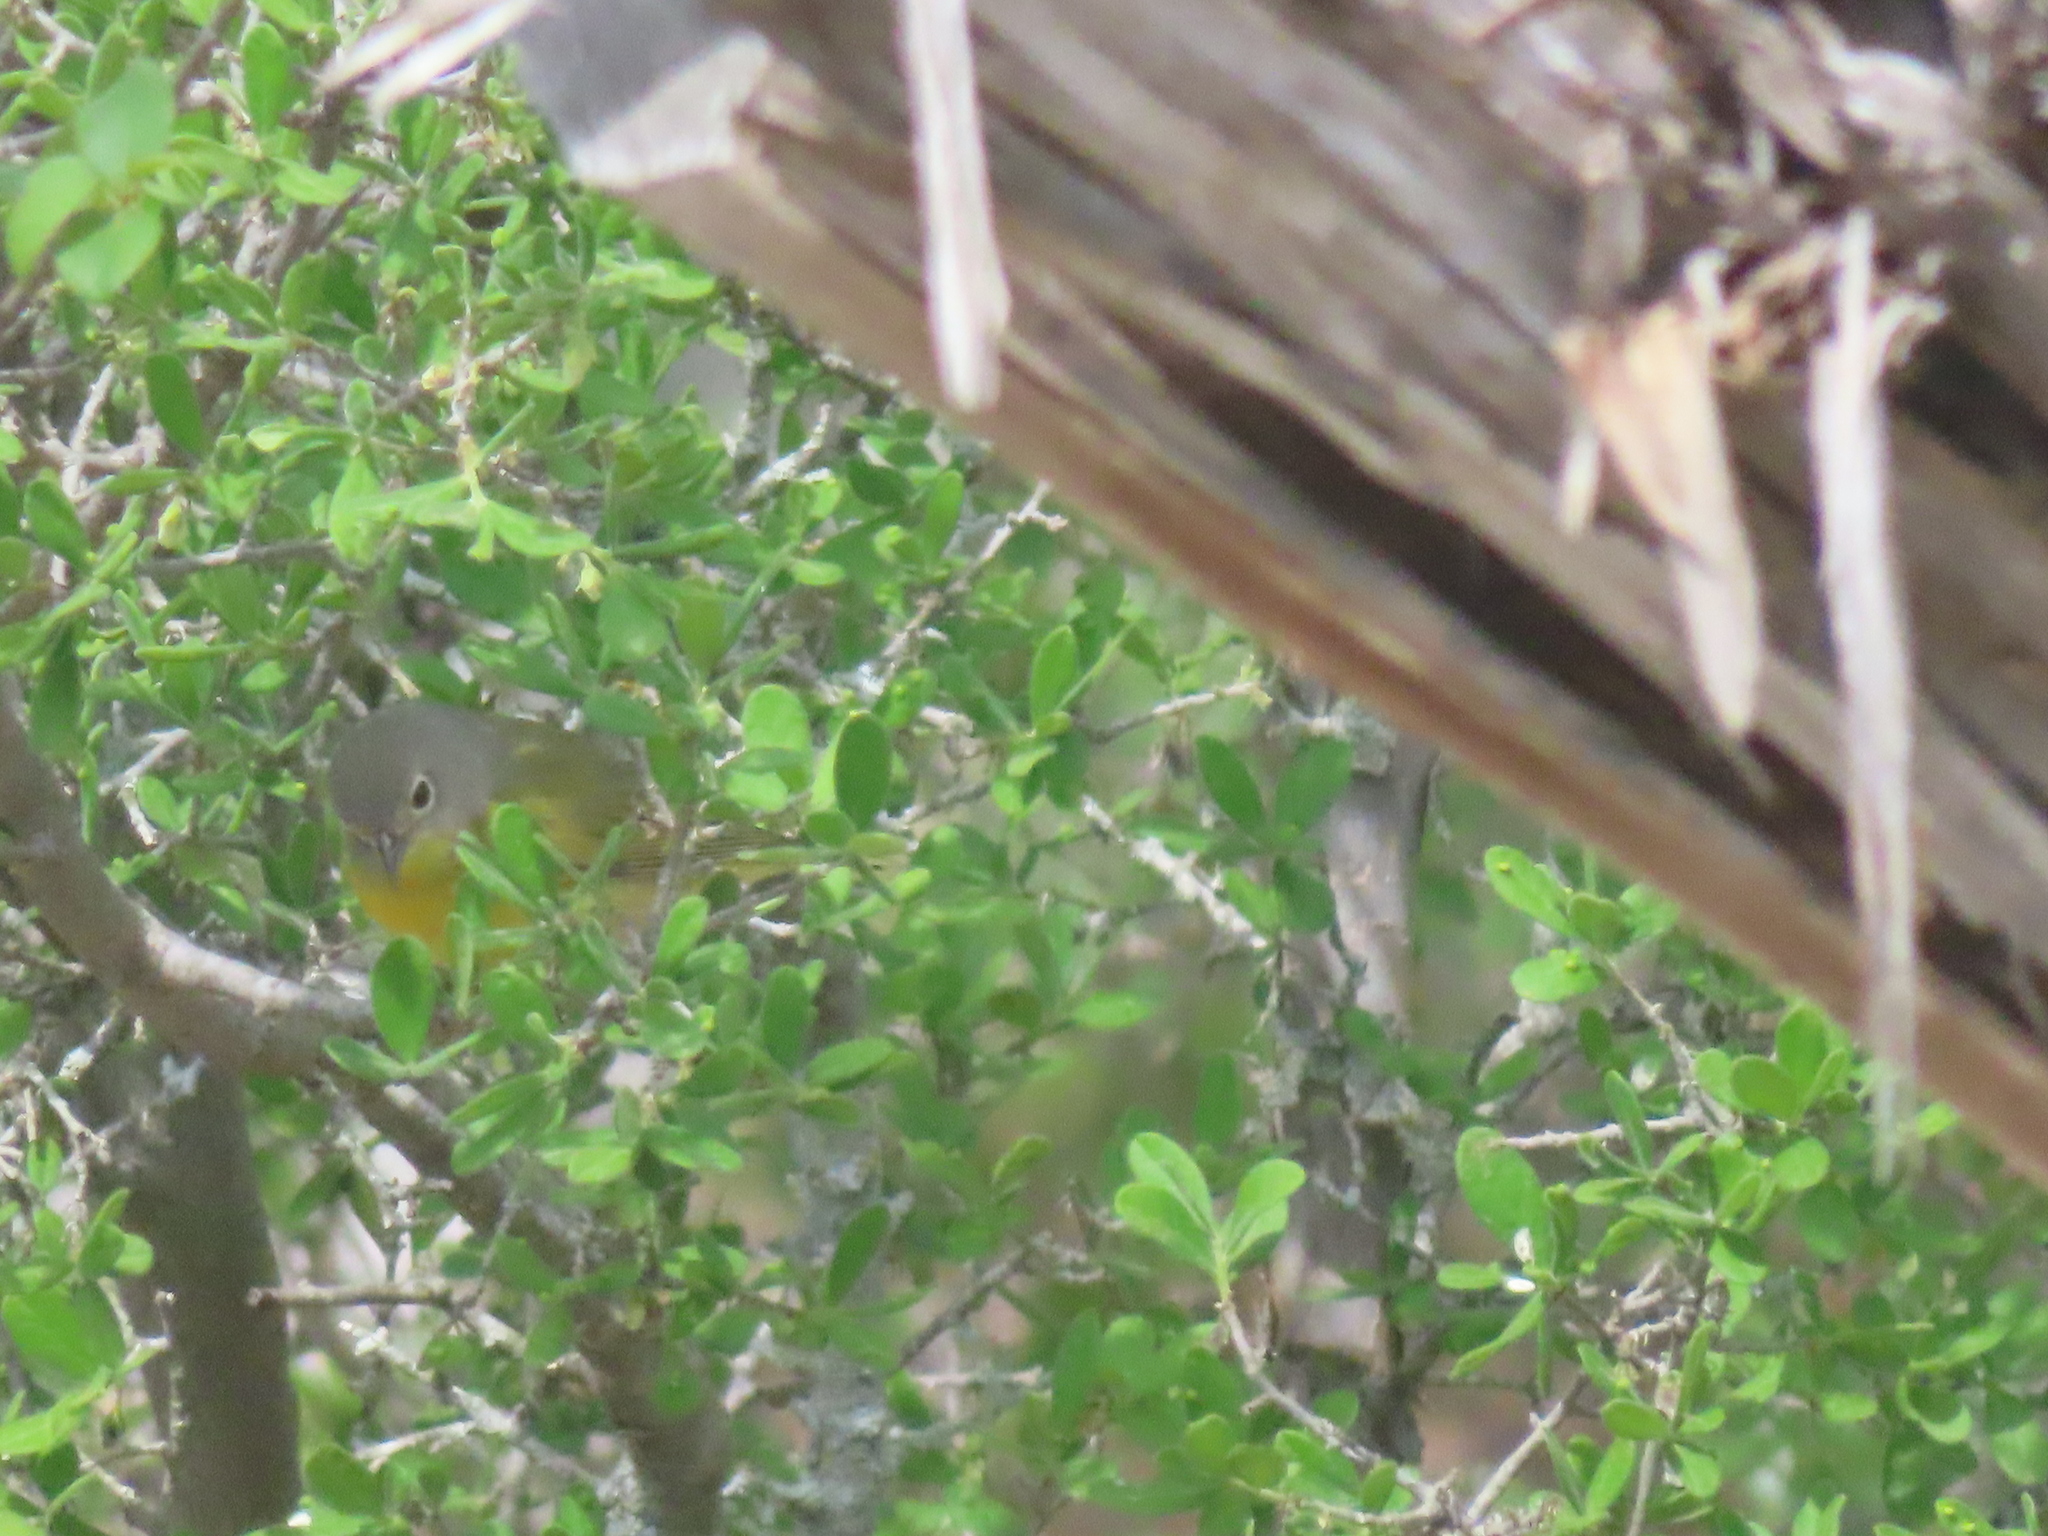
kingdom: Animalia
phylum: Chordata
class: Aves
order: Passeriformes
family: Parulidae
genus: Leiothlypis
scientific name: Leiothlypis ruficapilla
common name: Nashville warbler
